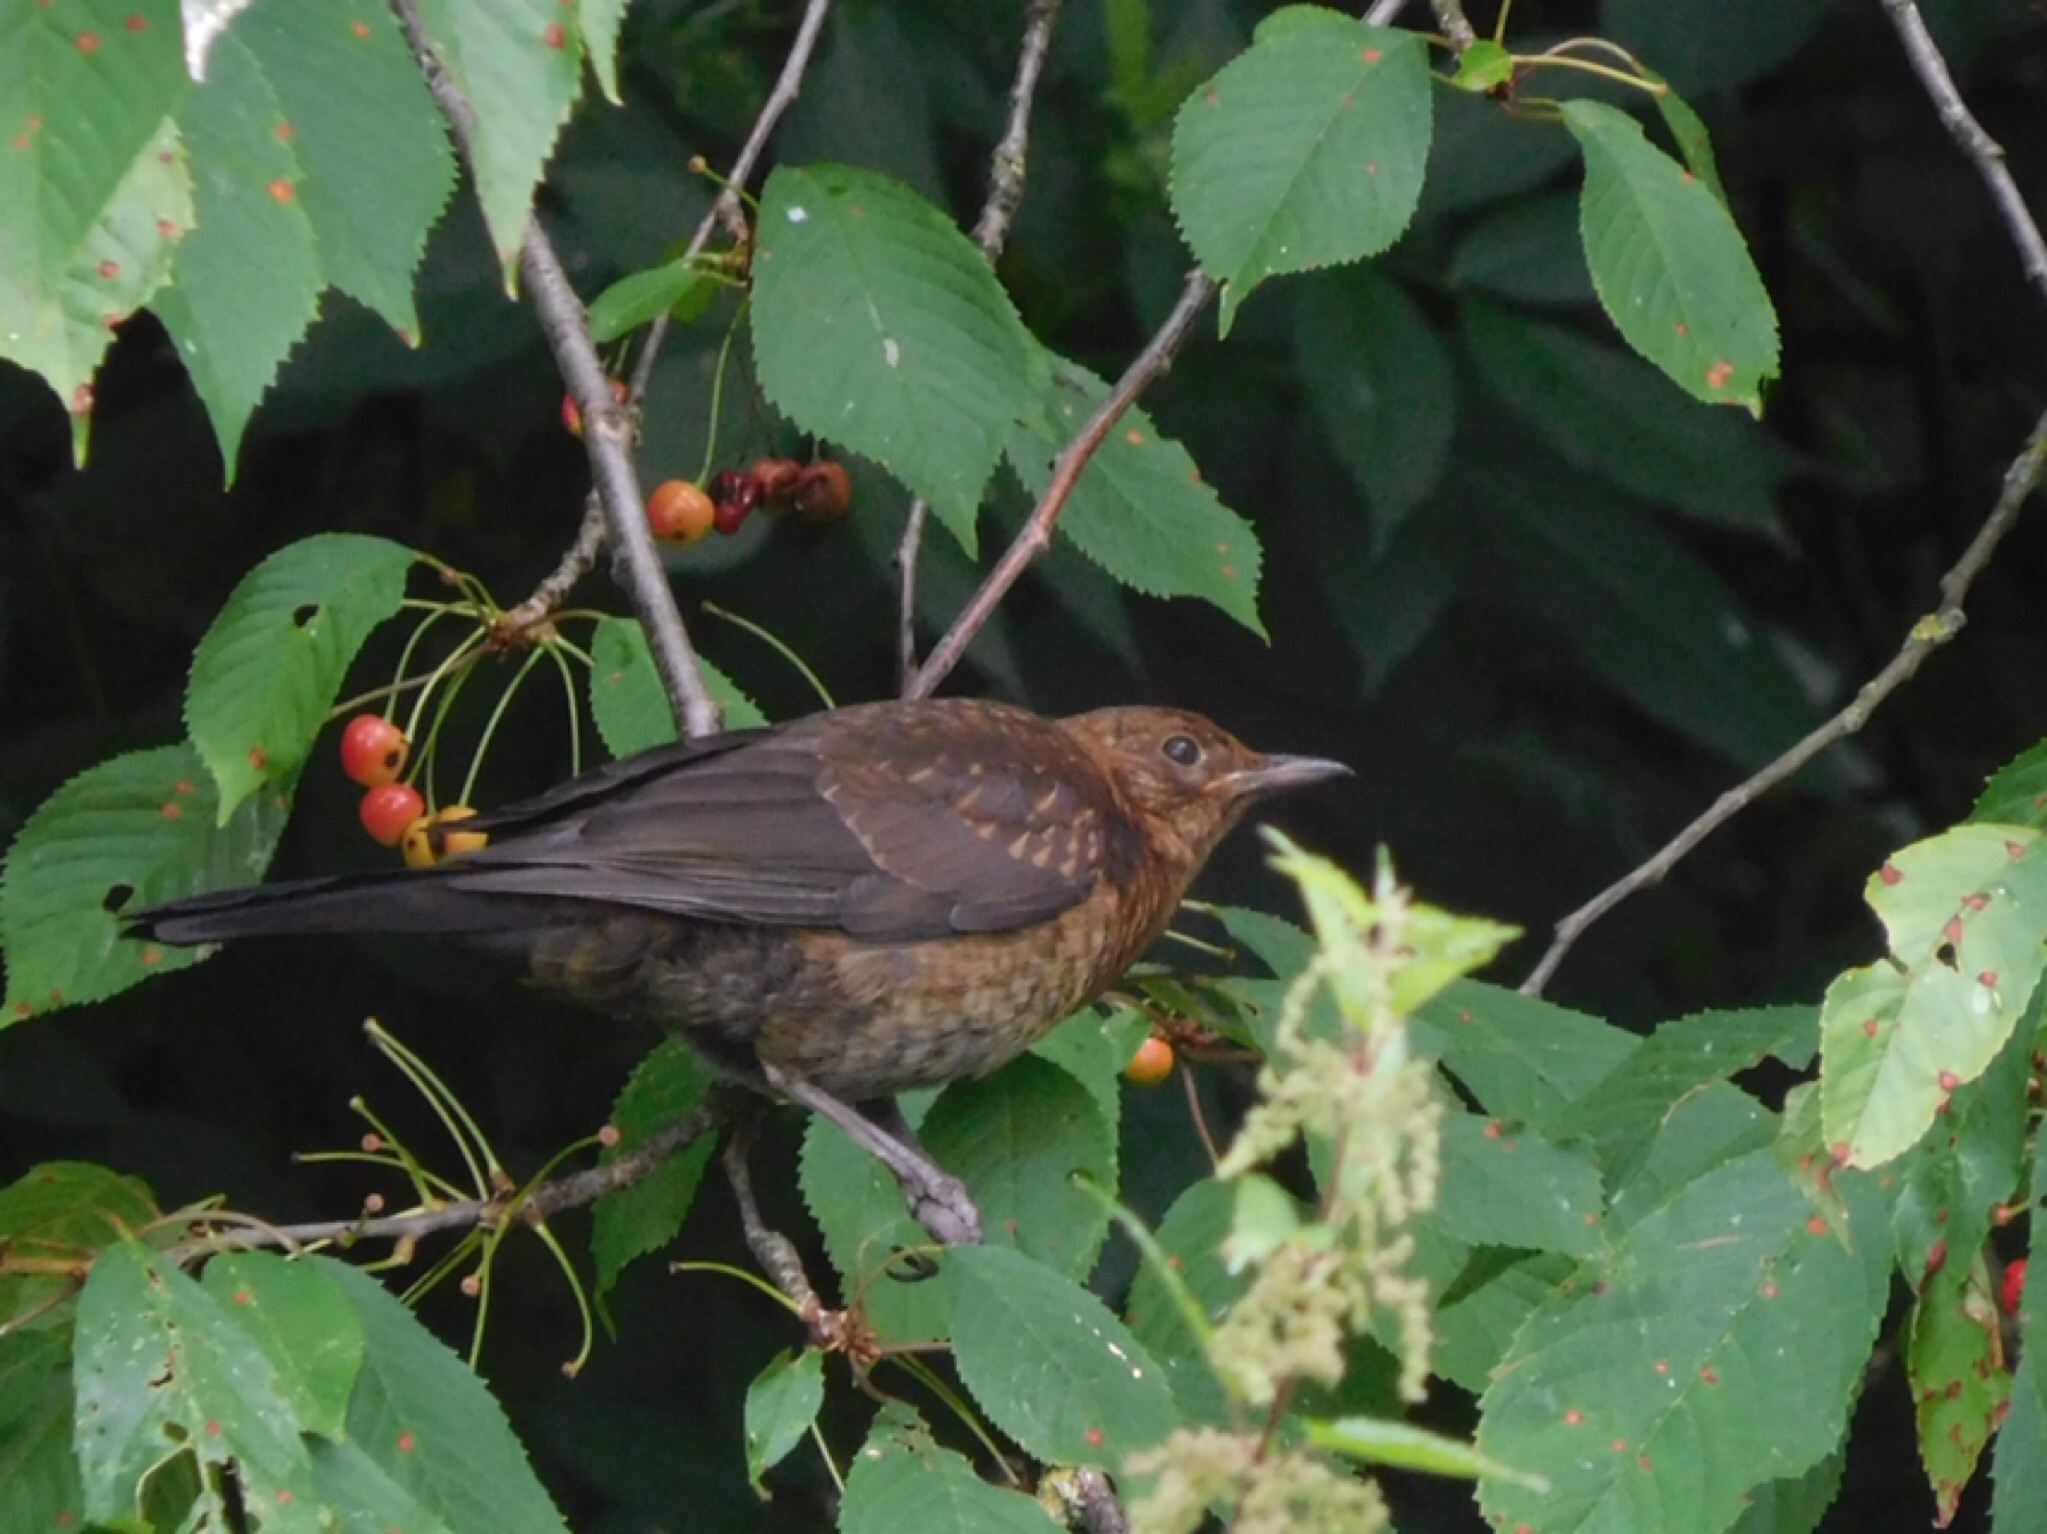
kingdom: Animalia
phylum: Chordata
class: Aves
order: Passeriformes
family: Turdidae
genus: Turdus
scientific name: Turdus merula
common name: Common blackbird
